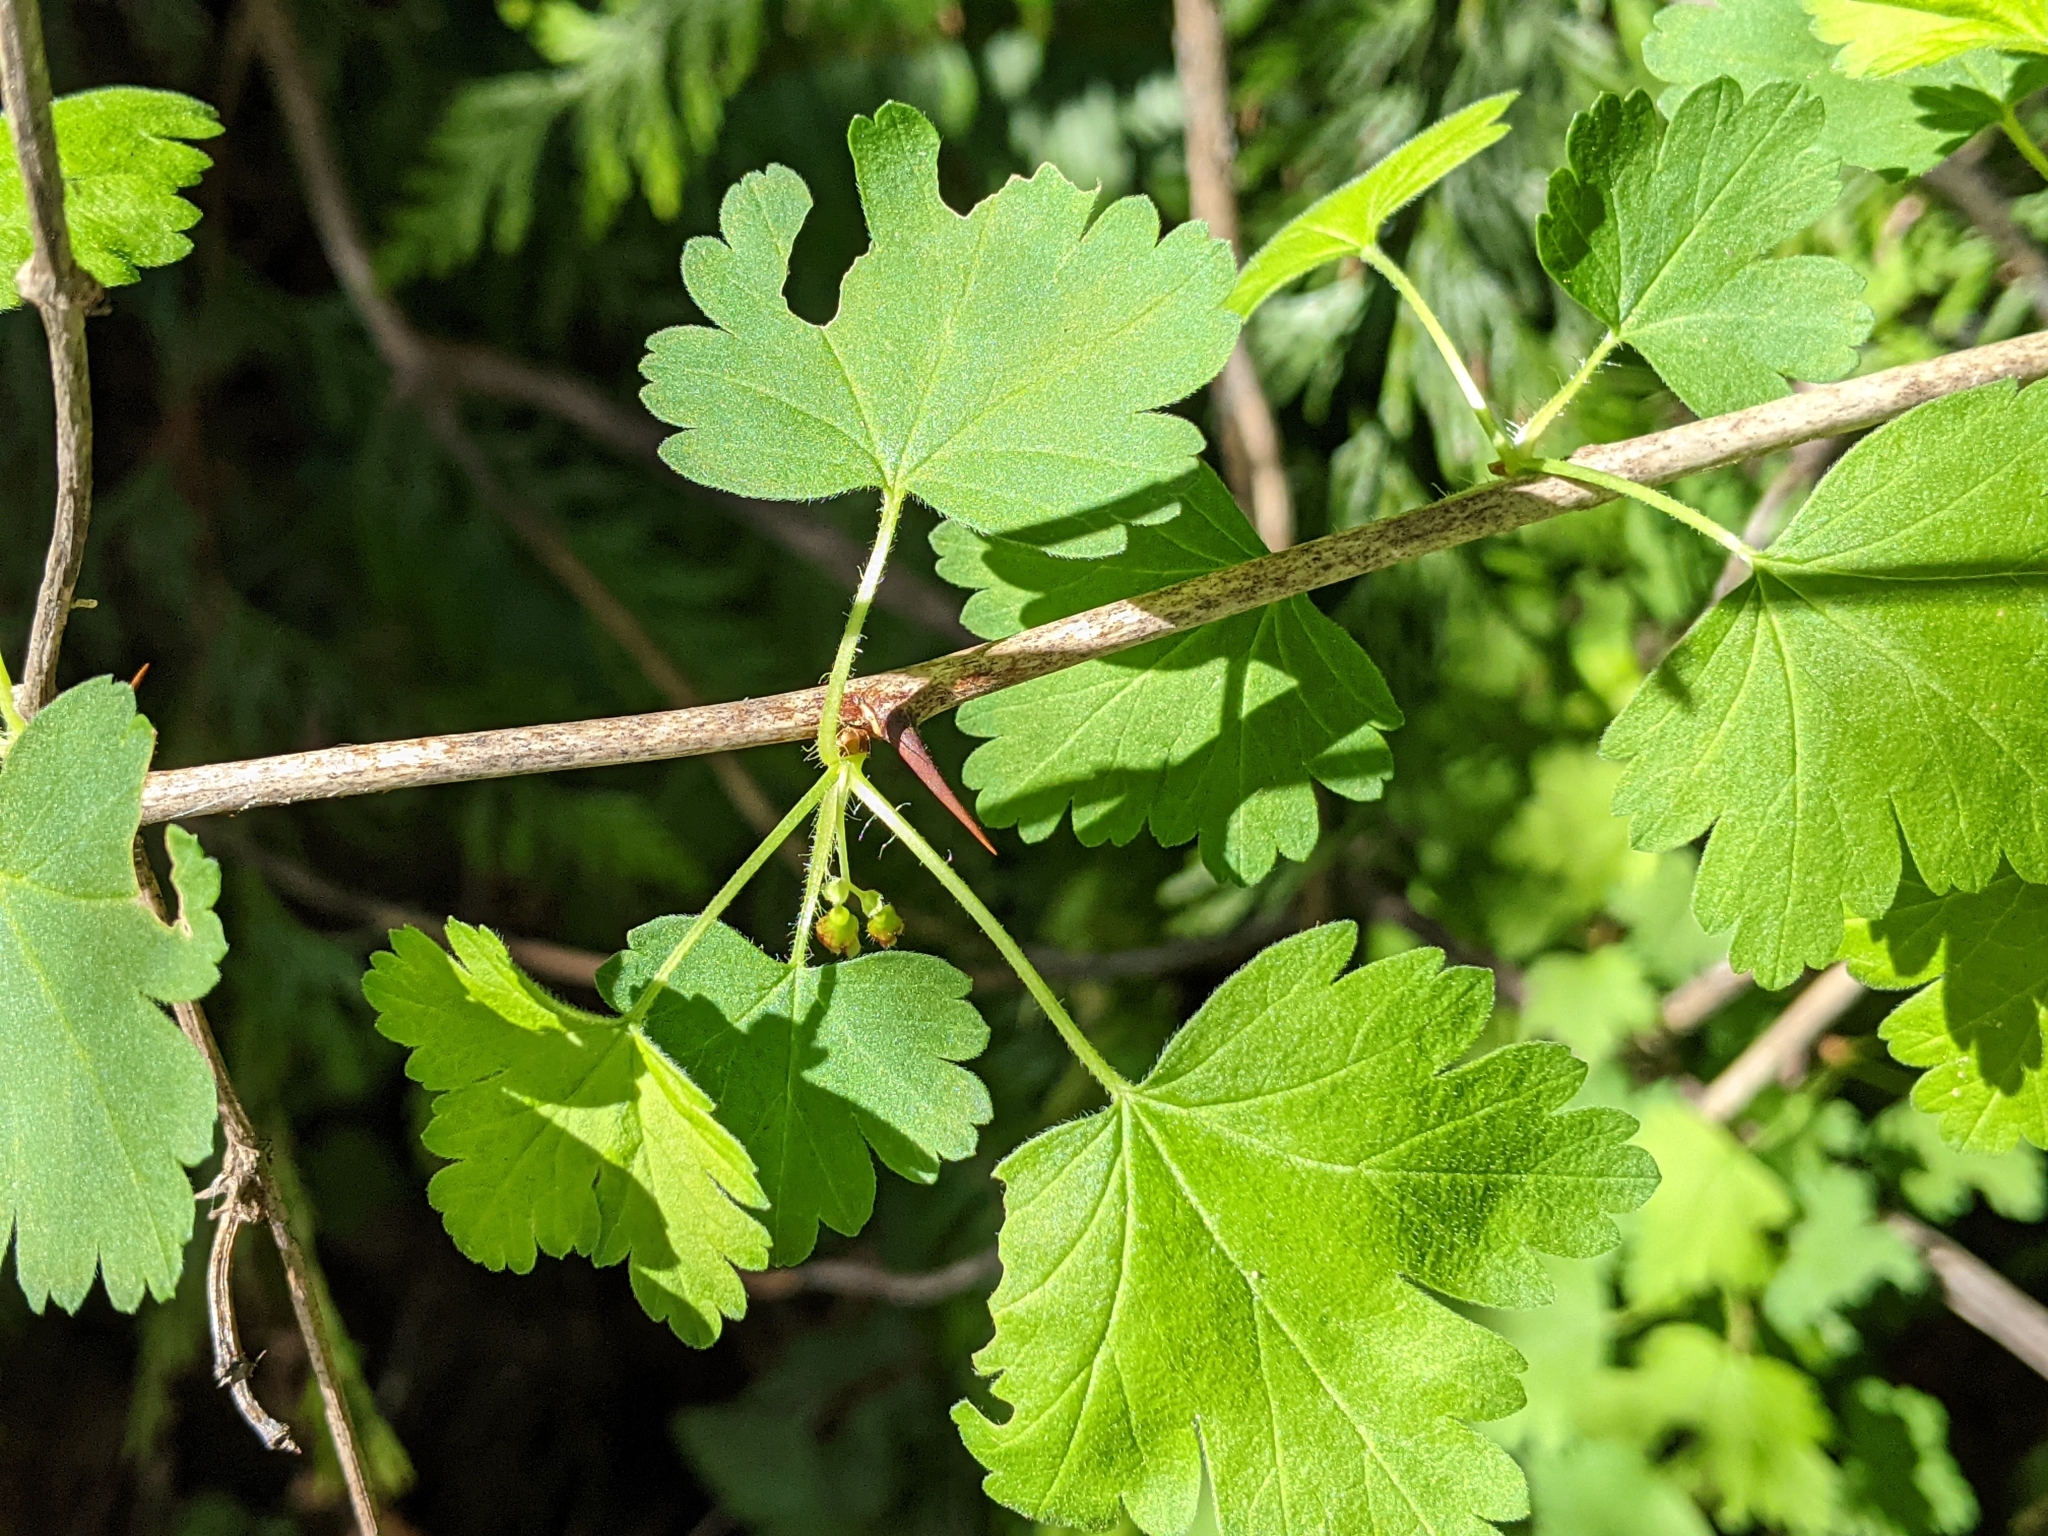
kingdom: Plantae
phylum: Tracheophyta
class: Magnoliopsida
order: Saxifragales
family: Grossulariaceae
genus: Ribes
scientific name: Ribes divaricatum
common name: Wild black gooseberry
